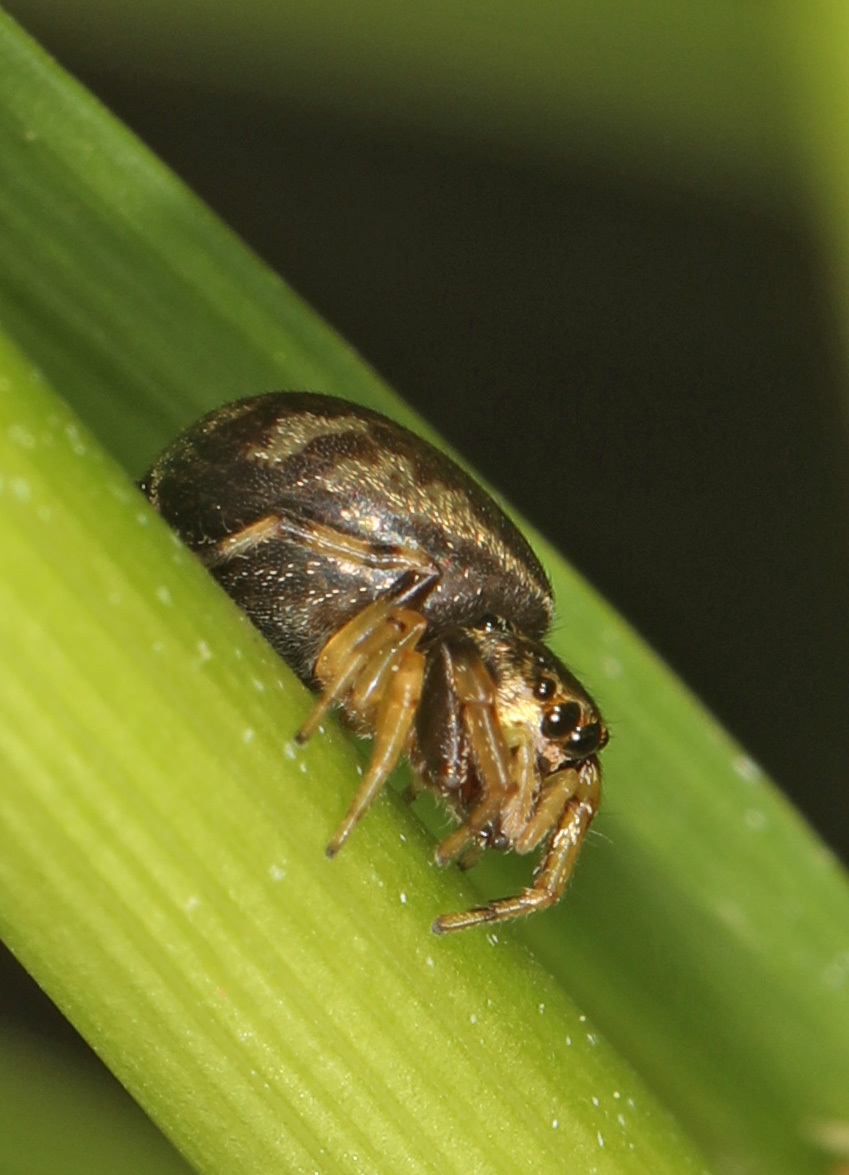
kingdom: Animalia
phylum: Arthropoda
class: Arachnida
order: Araneae
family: Salticidae
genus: Zygoballus
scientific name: Zygoballus rufipes
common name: Jumping spiders
